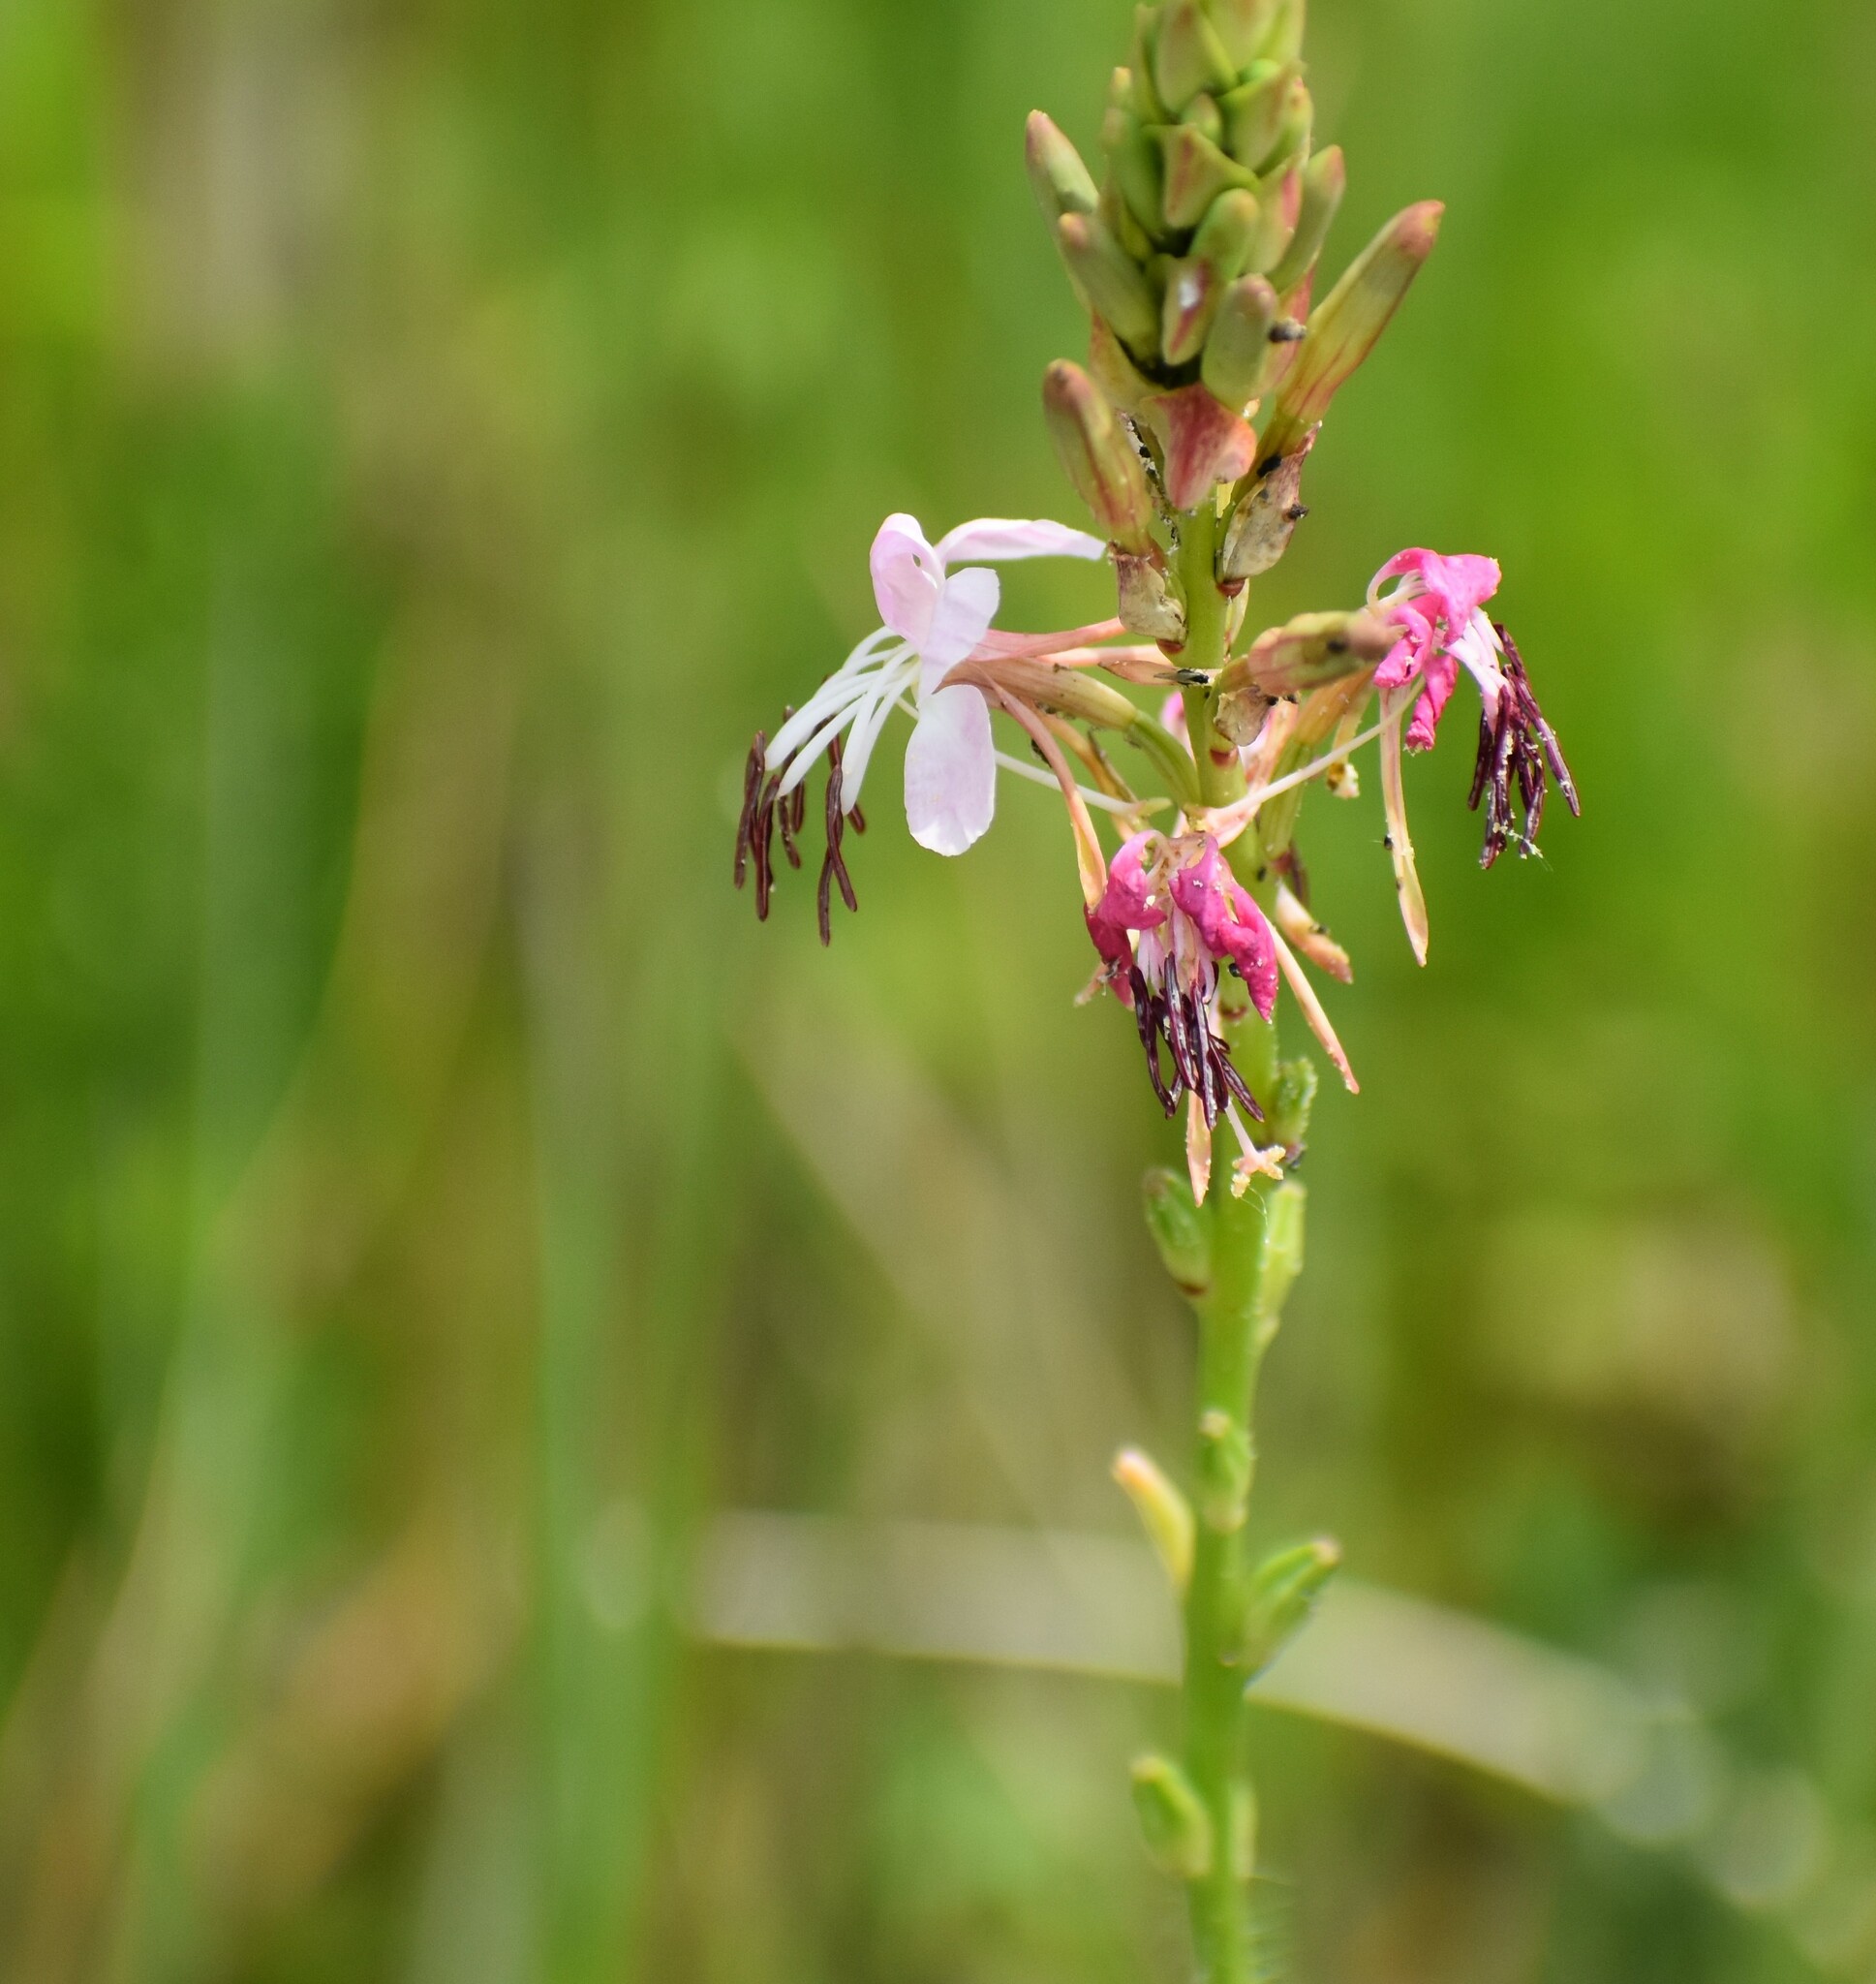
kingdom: Plantae
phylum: Tracheophyta
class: Magnoliopsida
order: Myrtales
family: Onagraceae
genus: Oenothera
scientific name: Oenothera suffulta
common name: Kisses
